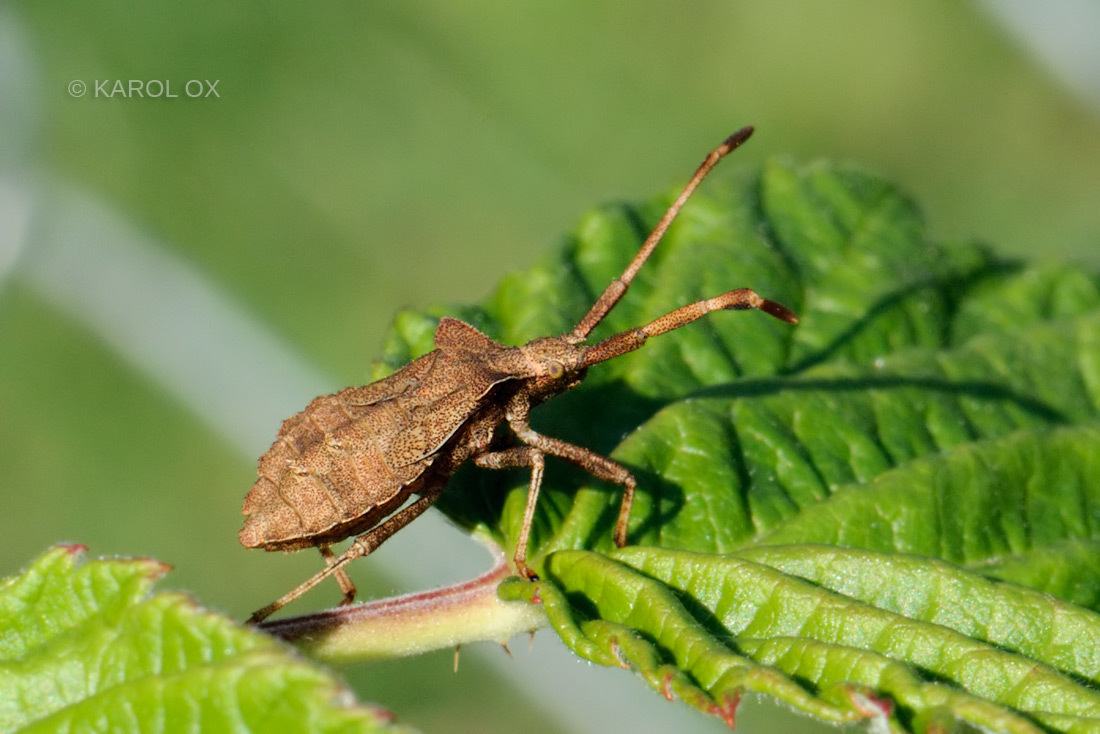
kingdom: Animalia
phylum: Arthropoda
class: Insecta
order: Hemiptera
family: Coreidae
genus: Coreus
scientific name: Coreus marginatus
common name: Dock bug
